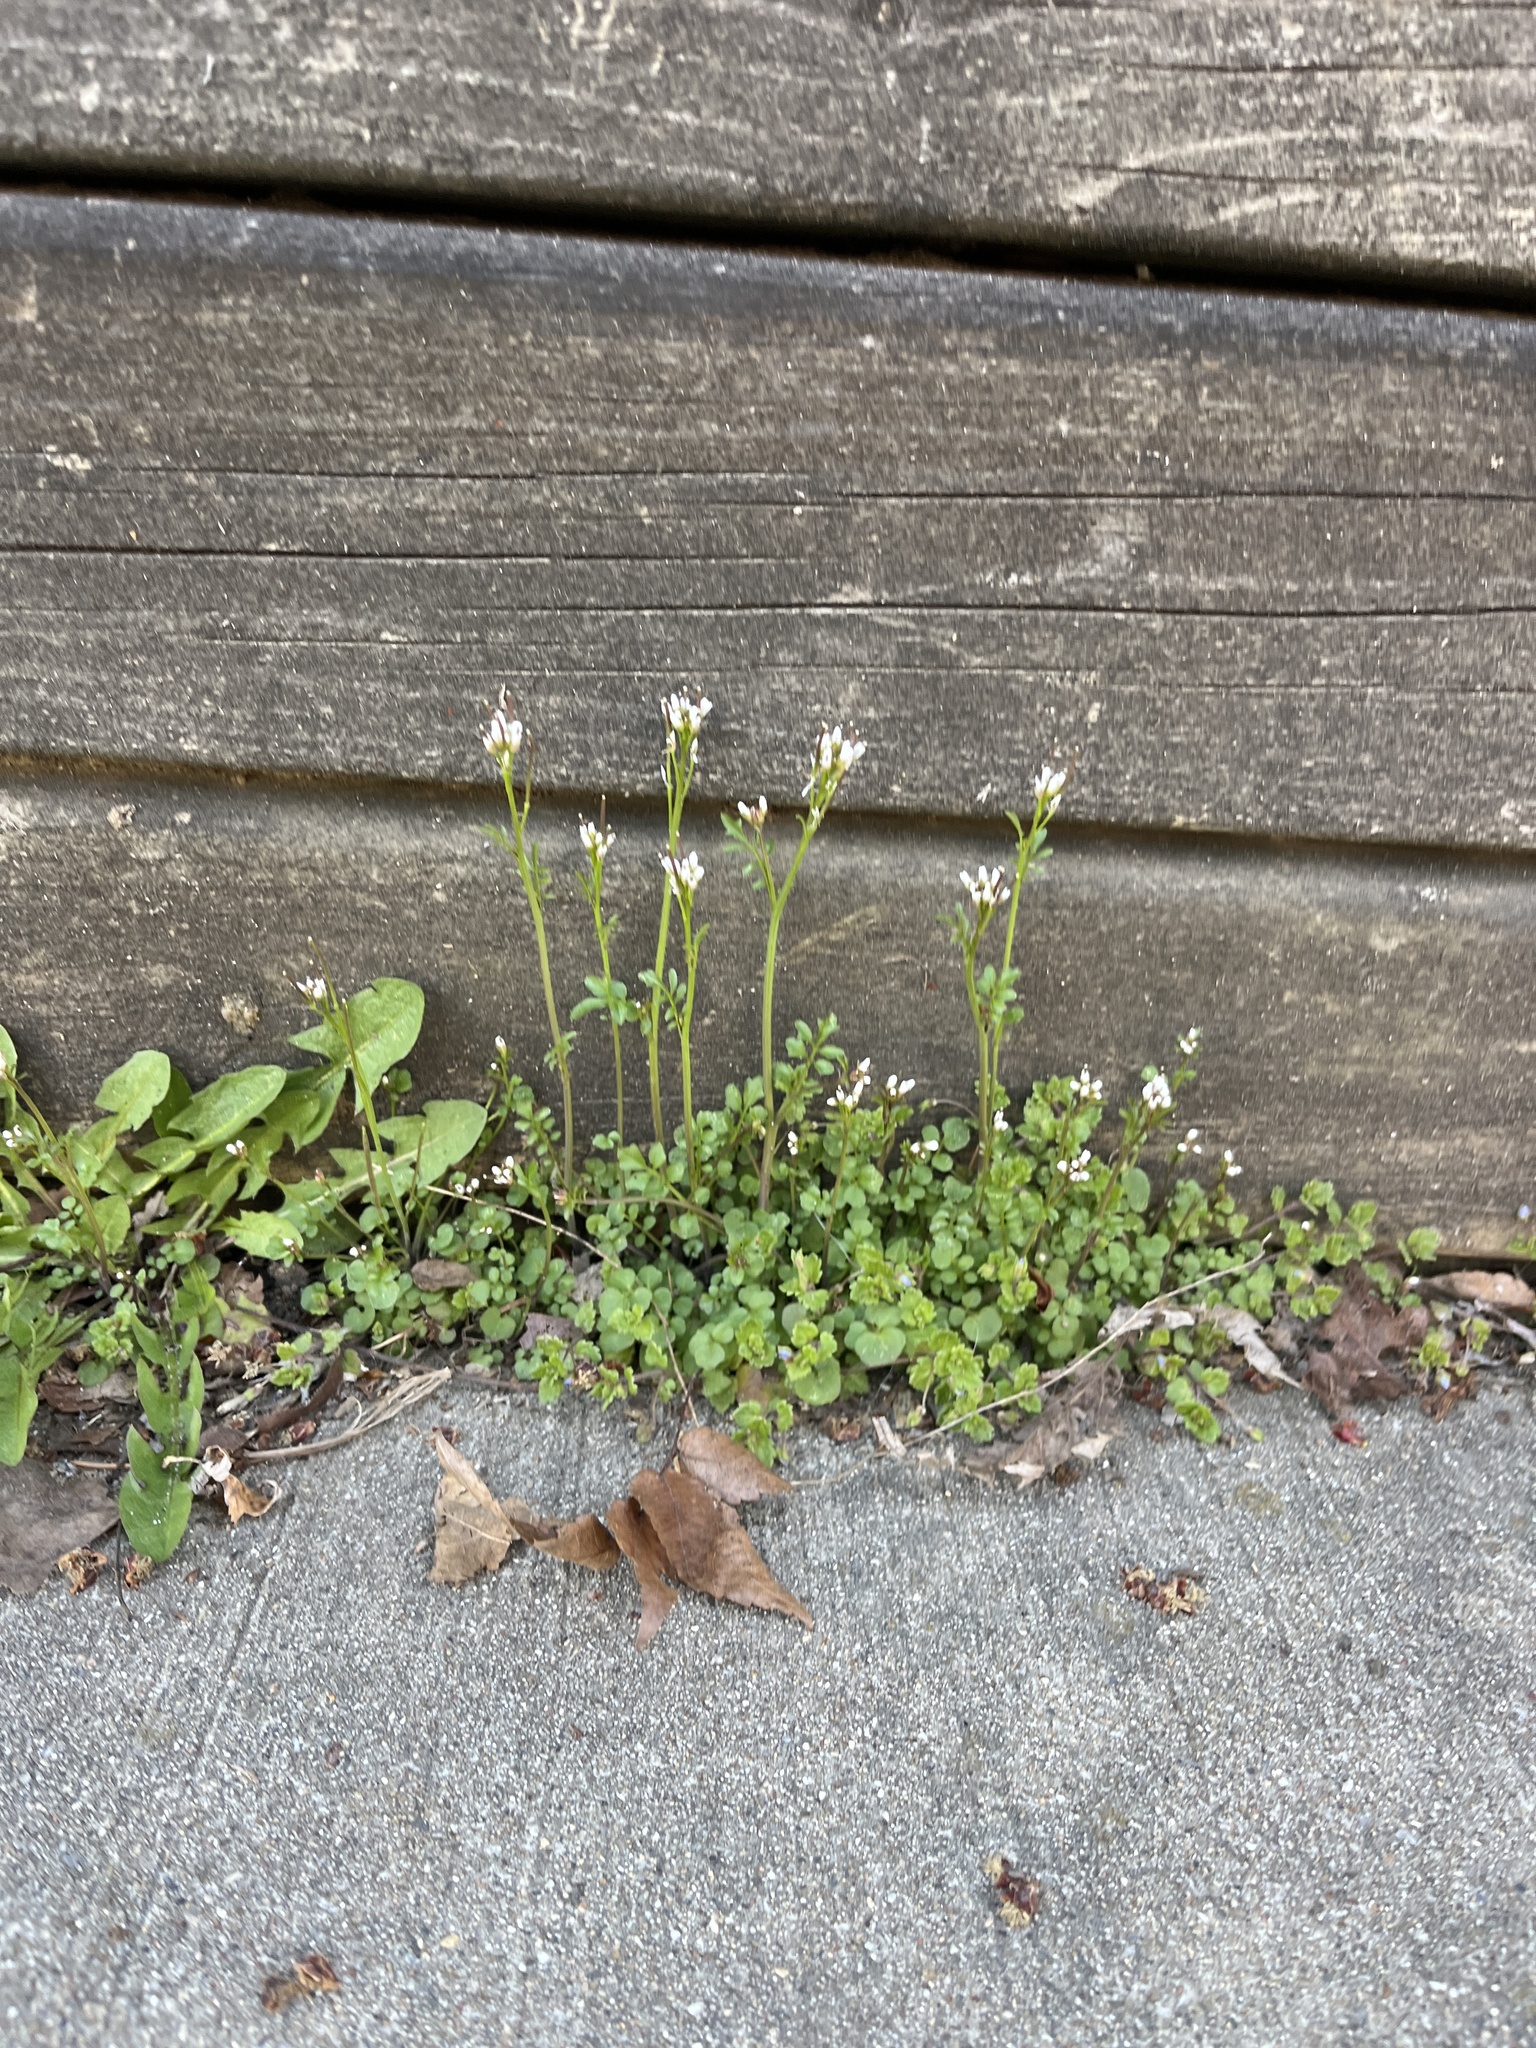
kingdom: Plantae
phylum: Tracheophyta
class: Magnoliopsida
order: Brassicales
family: Brassicaceae
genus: Cardamine
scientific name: Cardamine hirsuta
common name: Hairy bittercress
